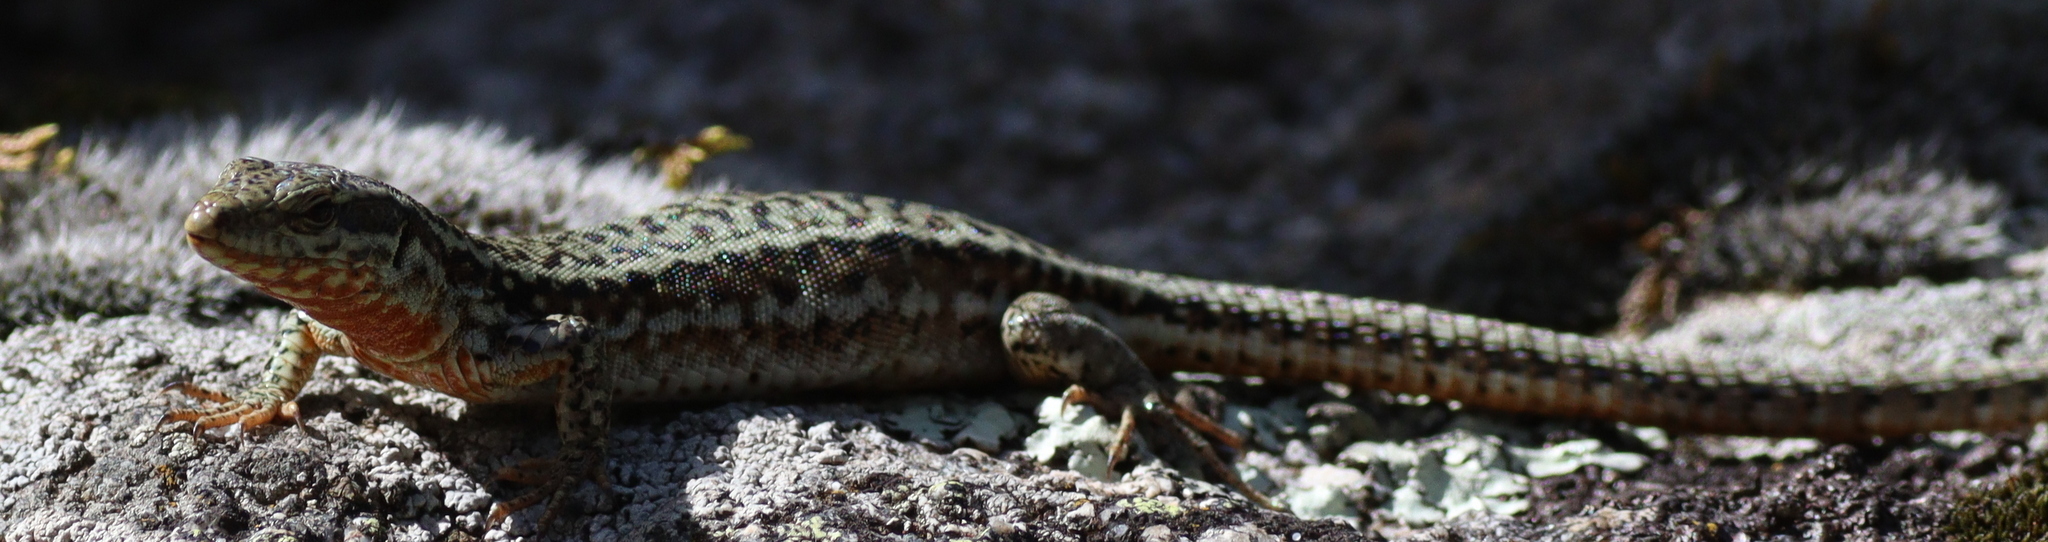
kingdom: Animalia
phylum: Chordata
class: Squamata
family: Lacertidae
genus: Podarcis
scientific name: Podarcis muralis
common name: Common wall lizard
